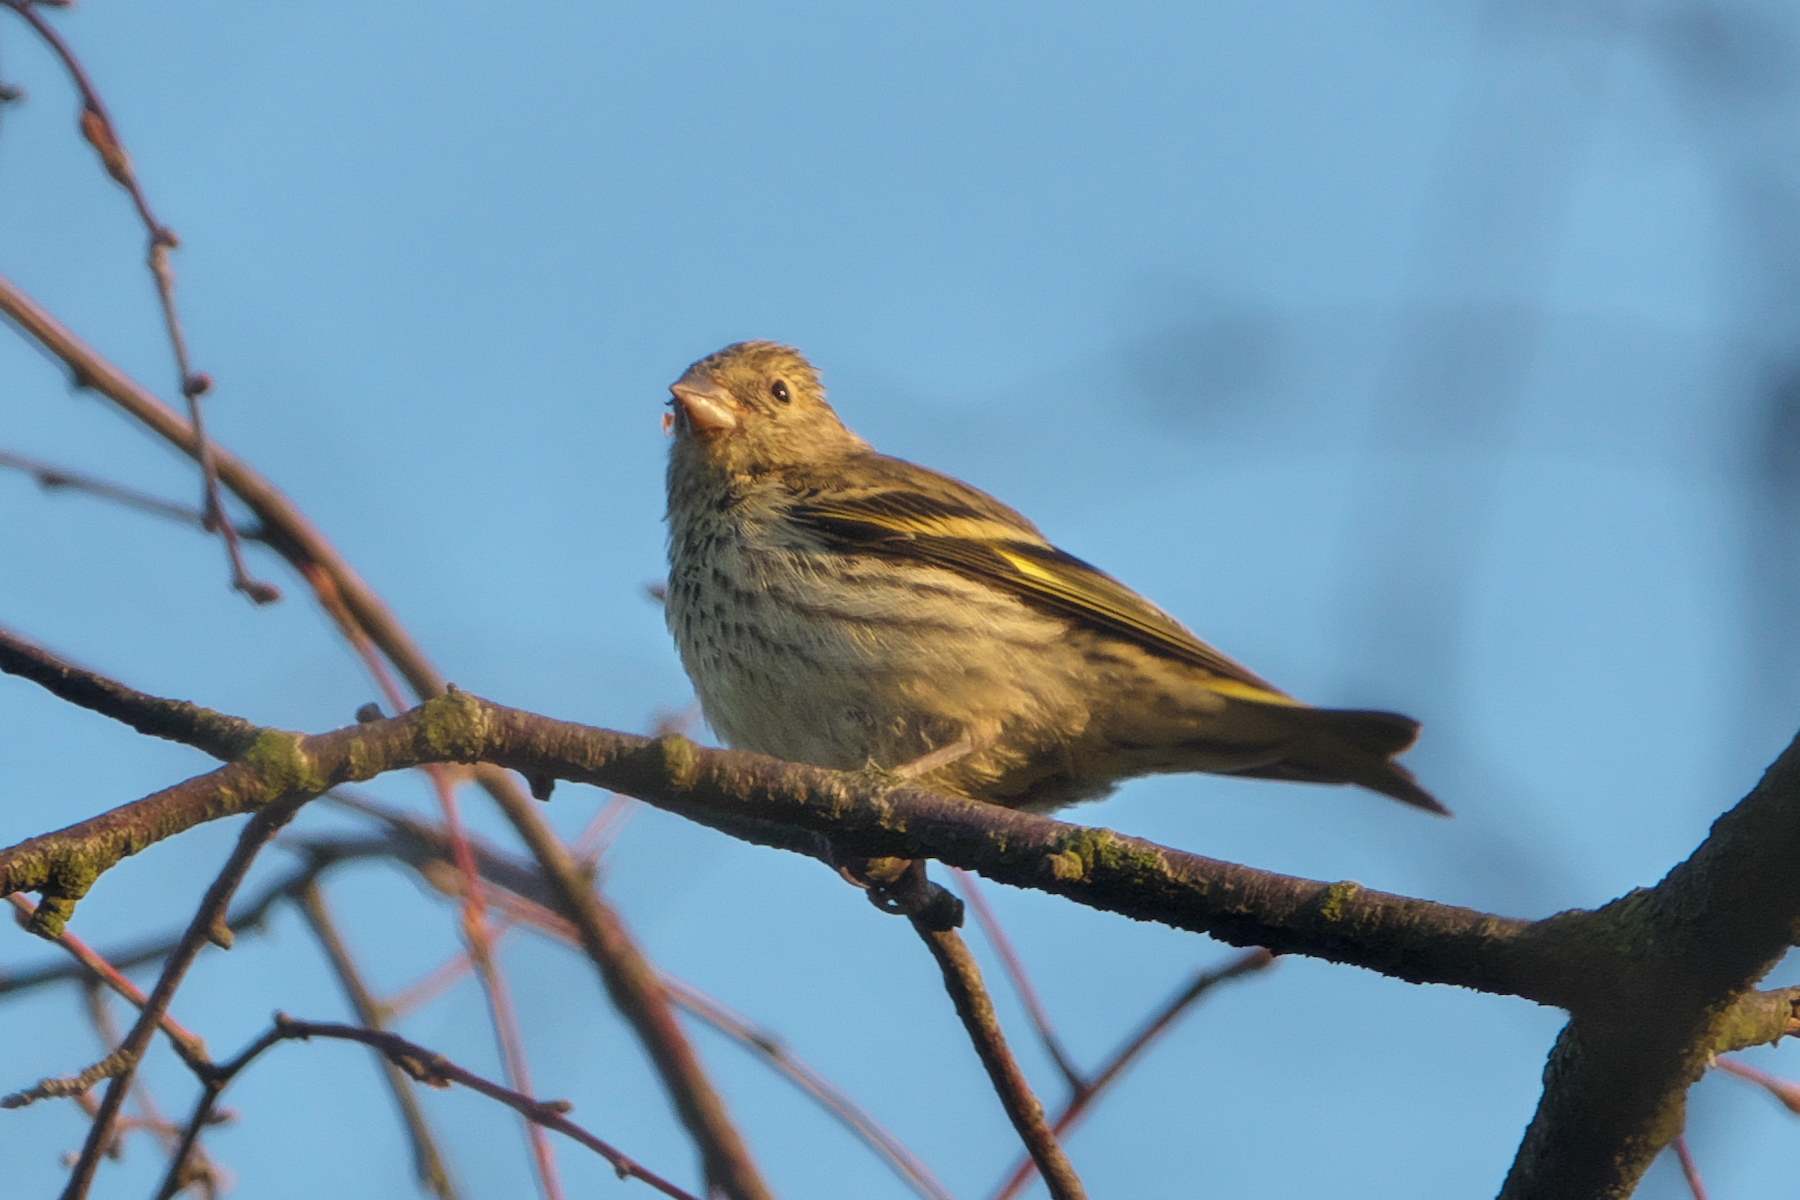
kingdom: Animalia
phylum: Chordata
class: Aves
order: Passeriformes
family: Fringillidae
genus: Spinus
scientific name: Spinus spinus
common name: Eurasian siskin
